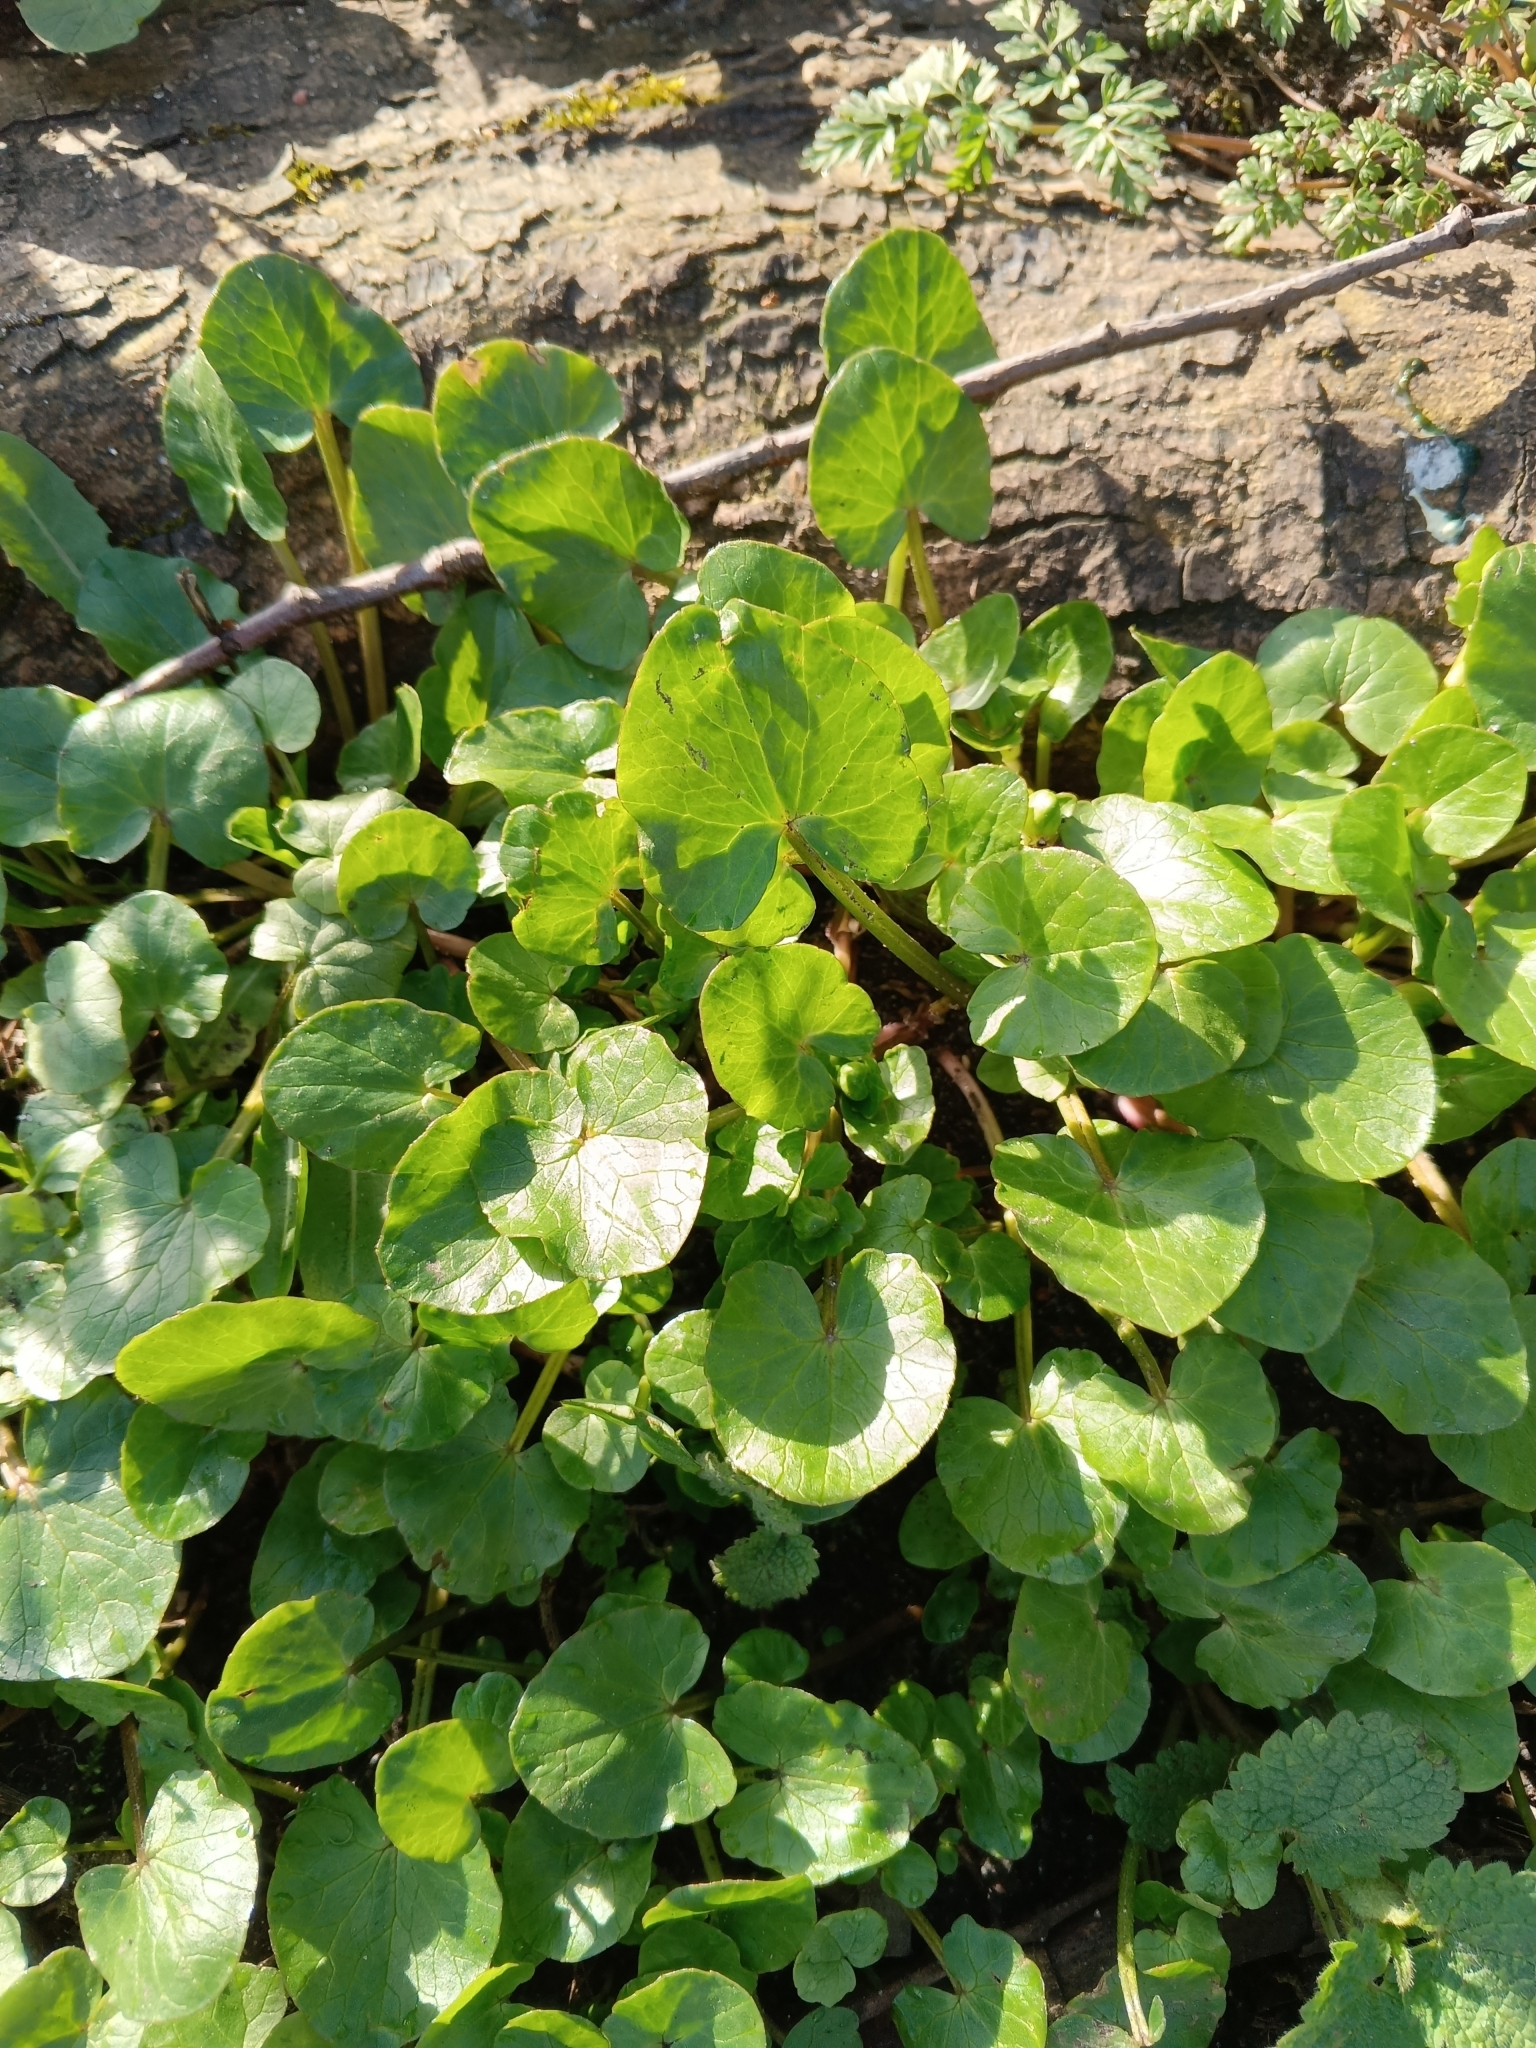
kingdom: Plantae
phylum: Tracheophyta
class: Magnoliopsida
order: Ranunculales
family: Ranunculaceae
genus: Ficaria
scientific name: Ficaria verna
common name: Lesser celandine
